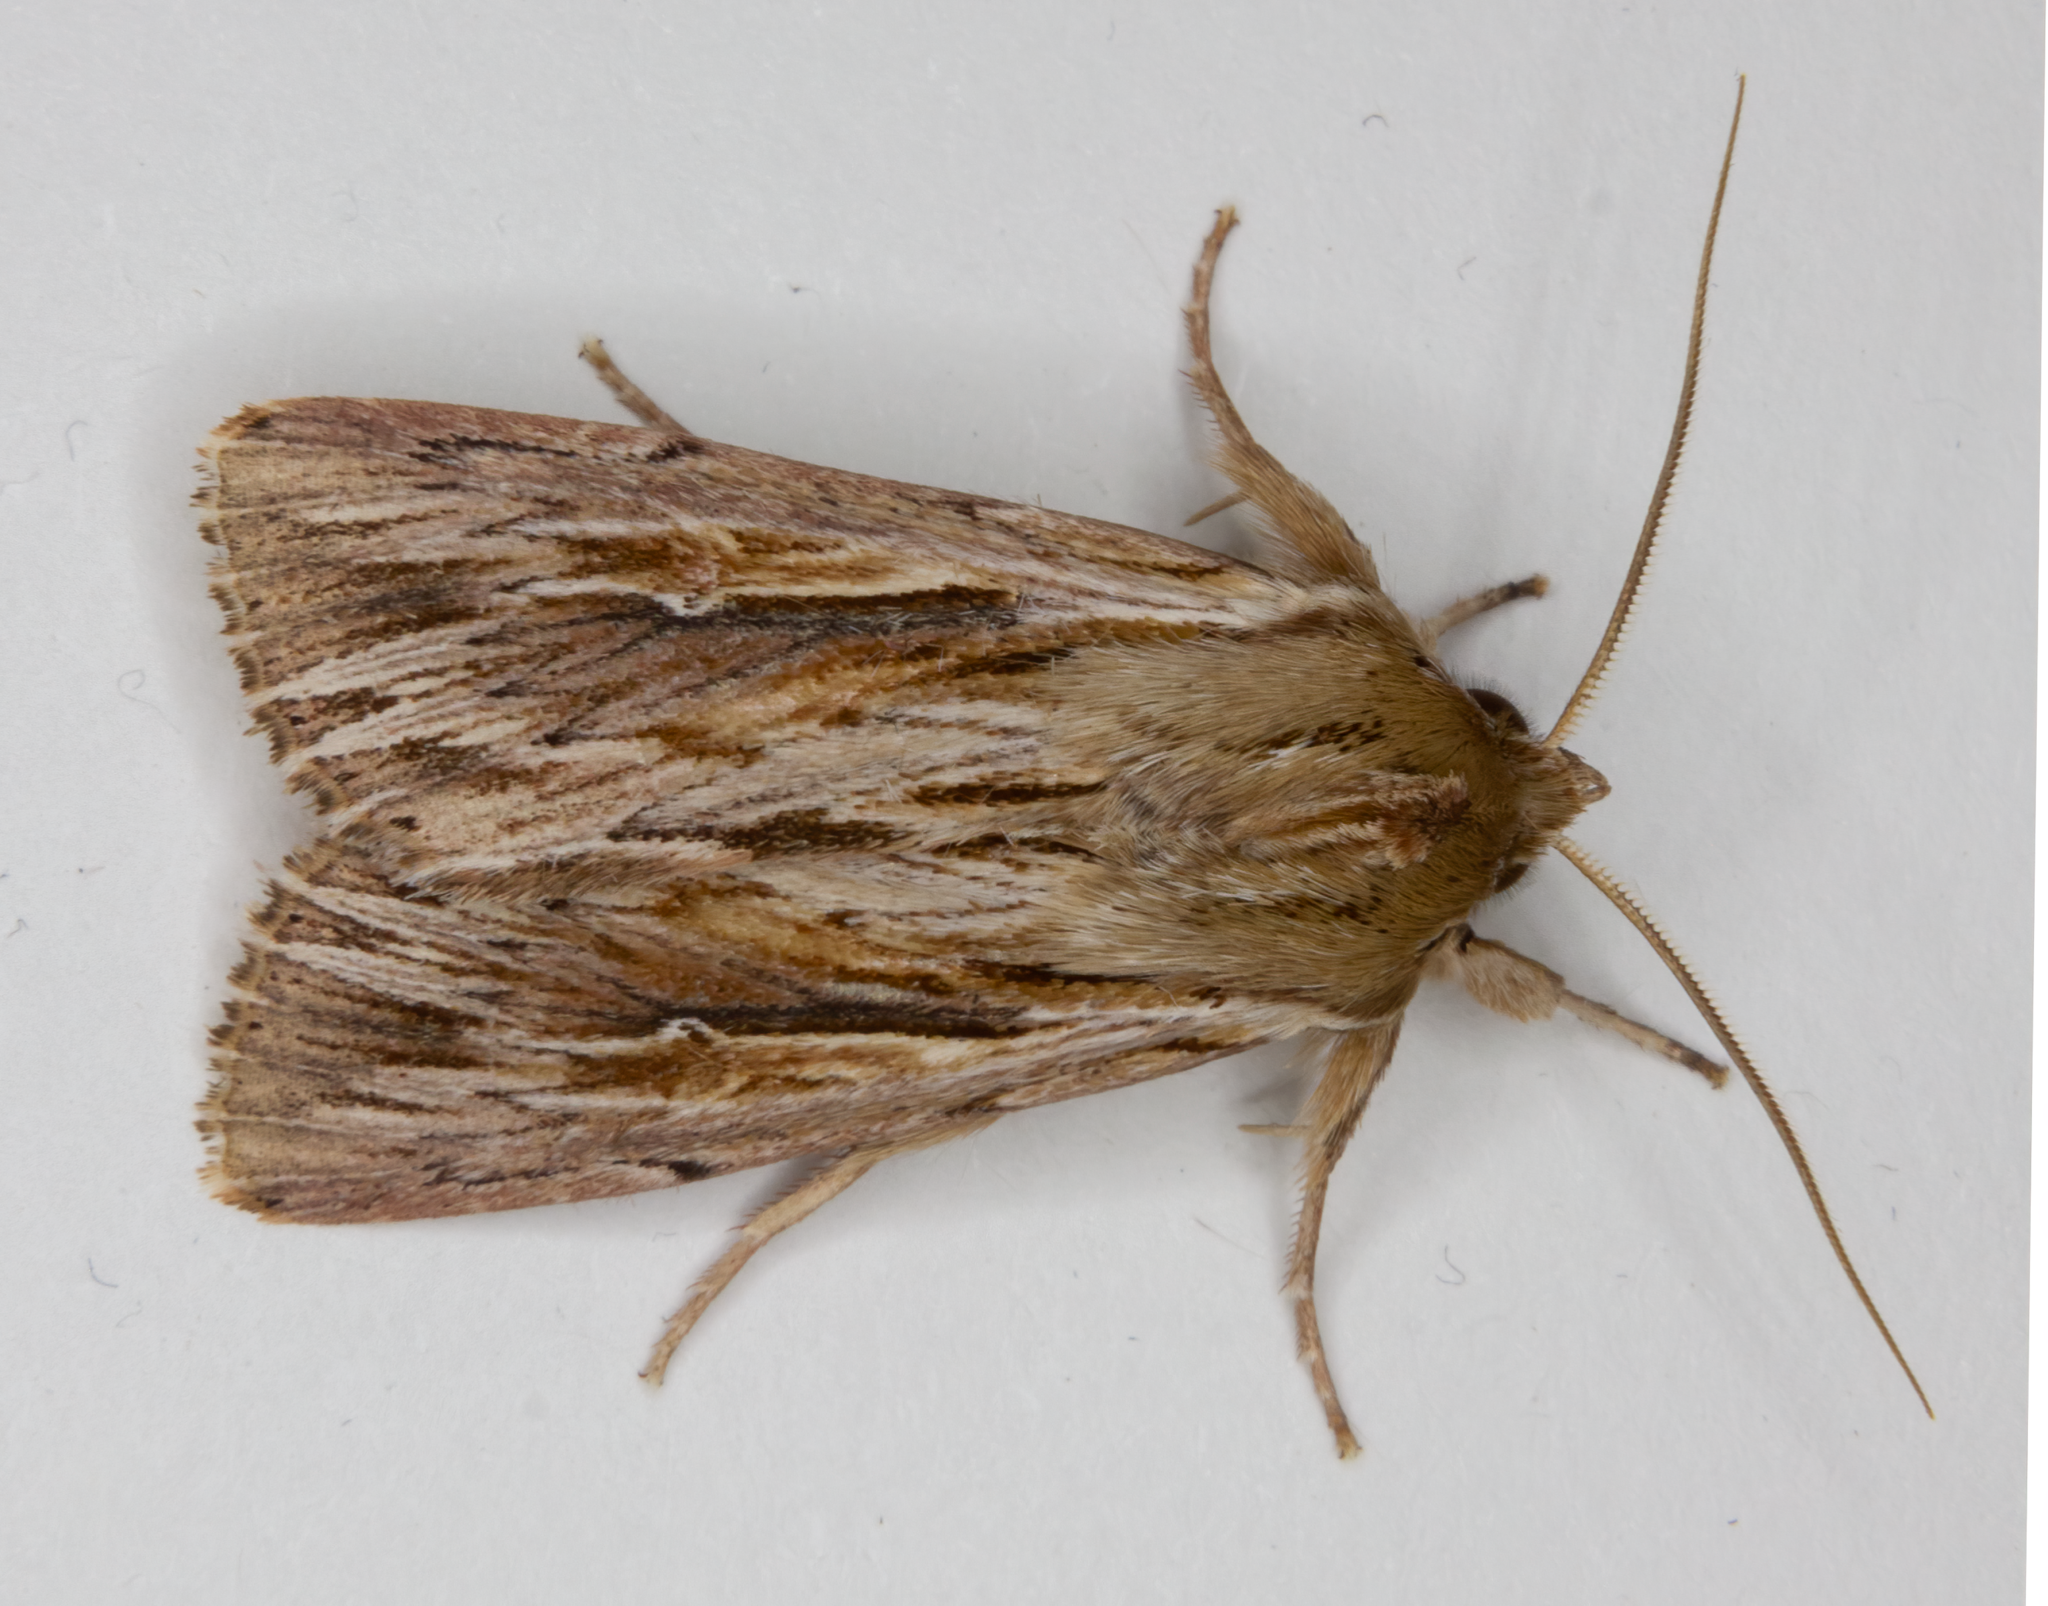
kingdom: Animalia
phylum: Arthropoda
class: Insecta
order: Lepidoptera
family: Noctuidae
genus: Persectania
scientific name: Persectania aversa
